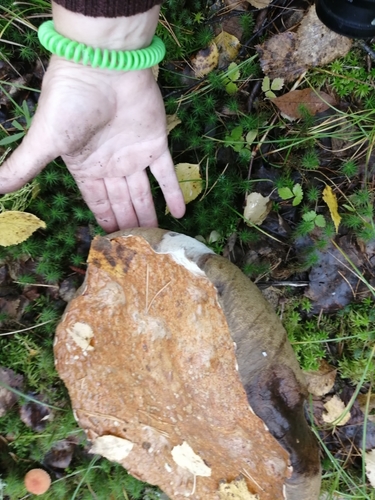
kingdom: Fungi
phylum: Basidiomycota
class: Agaricomycetes
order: Boletales
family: Boletaceae
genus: Boletus
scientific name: Boletus edulis
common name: Cep
